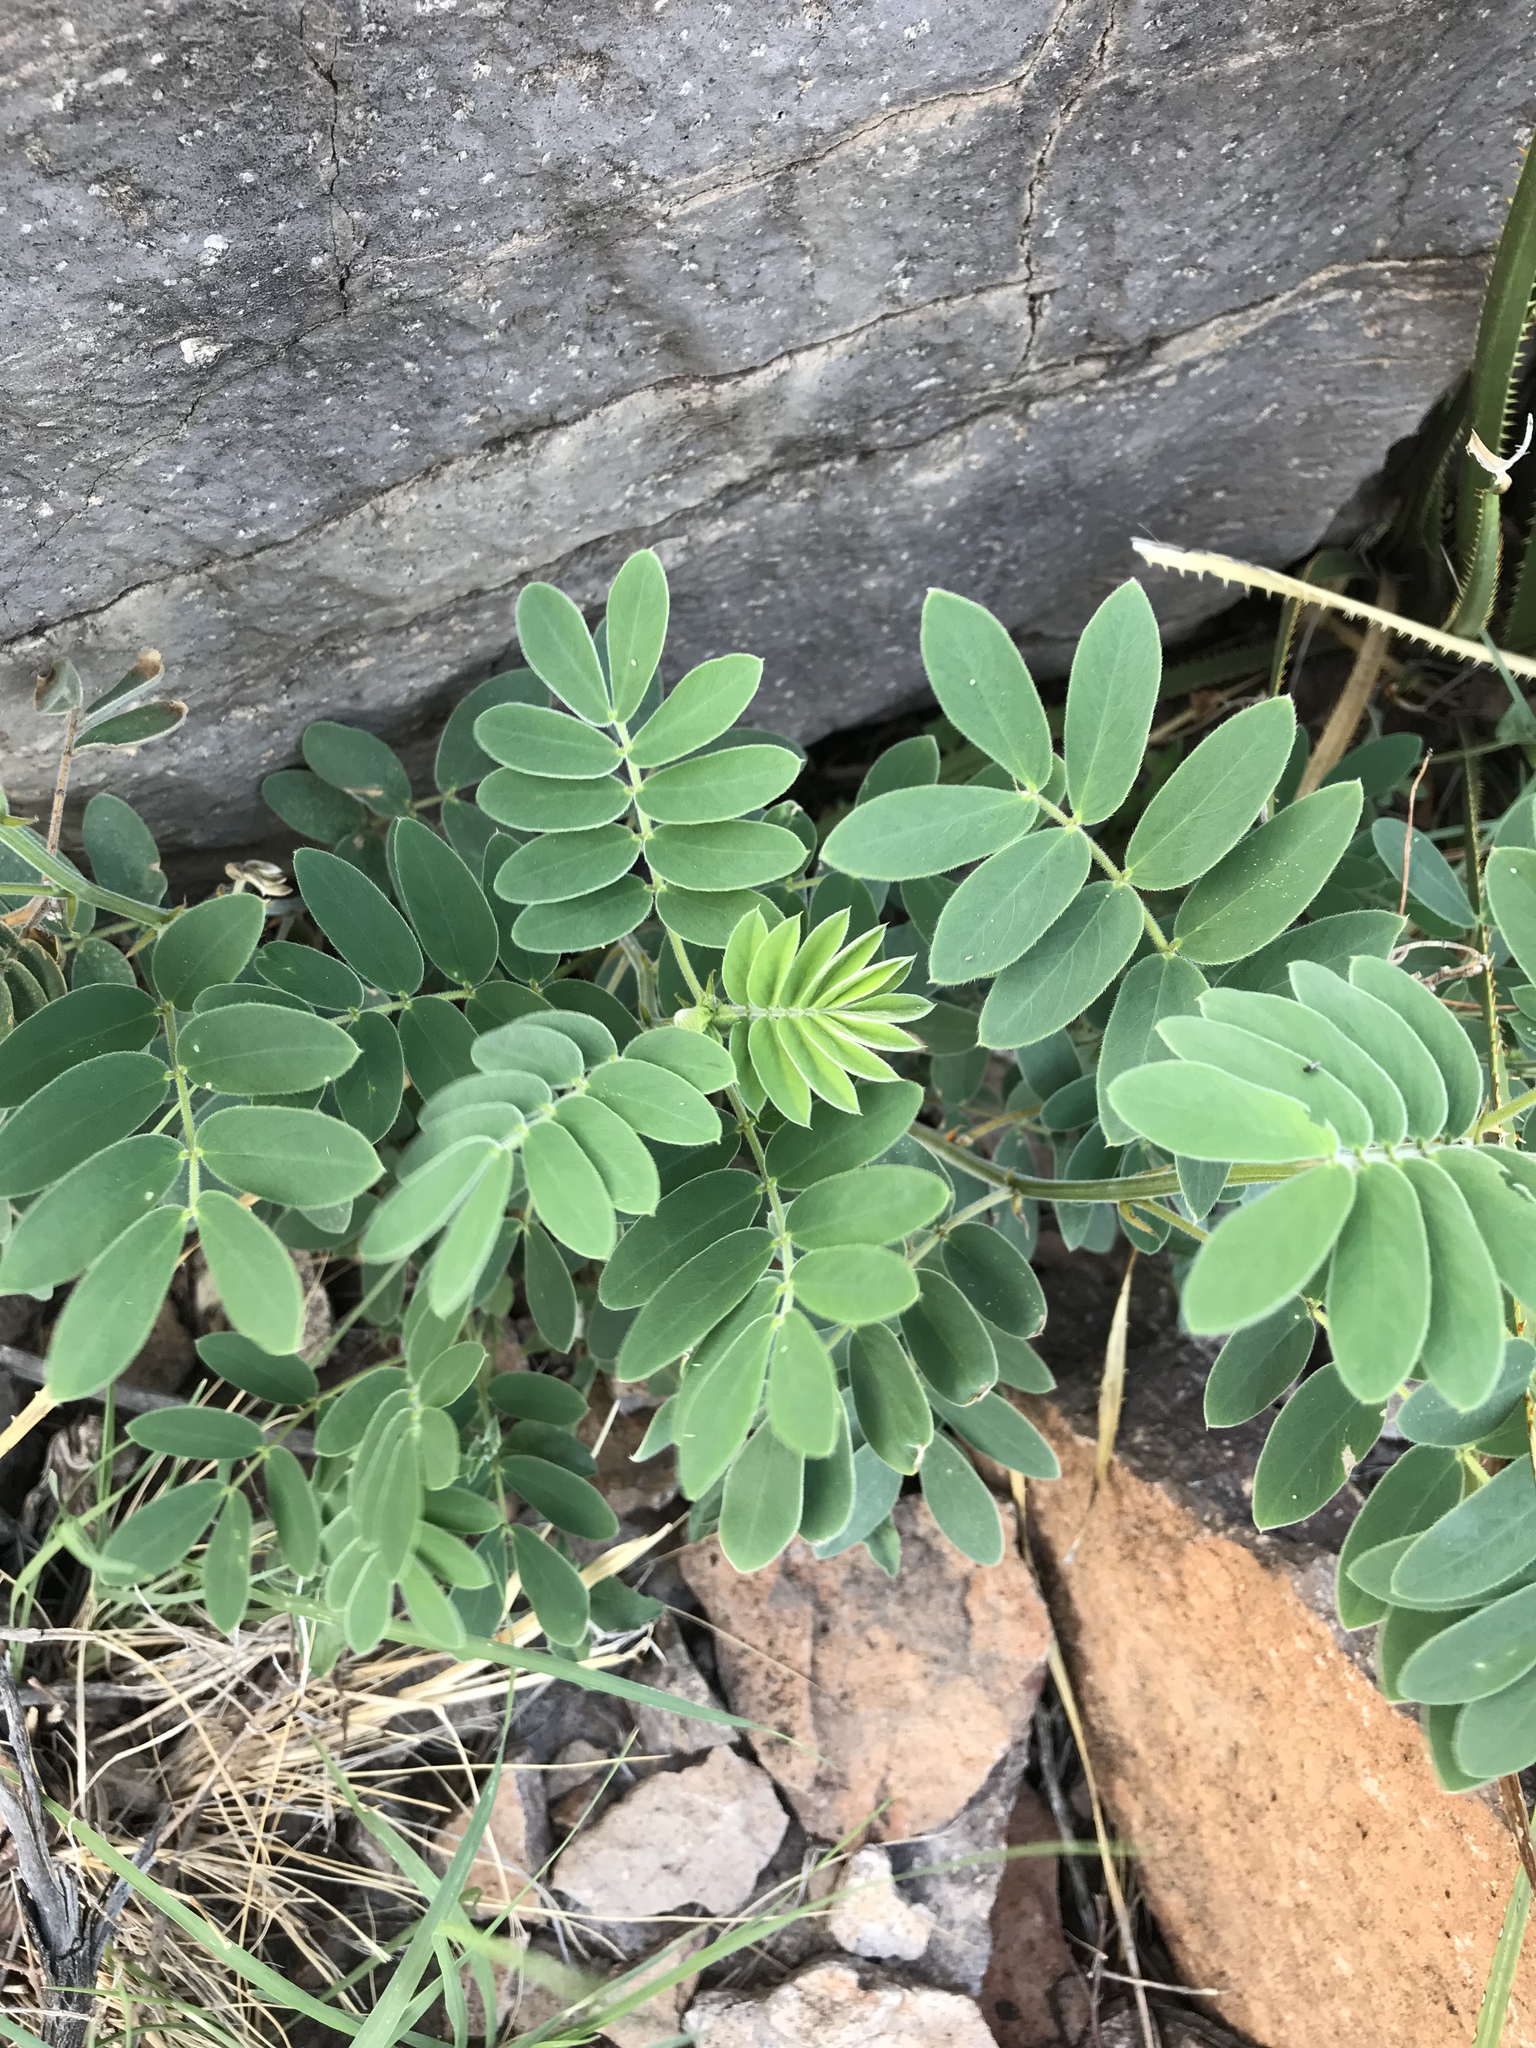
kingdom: Plantae
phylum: Tracheophyta
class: Magnoliopsida
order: Fabales
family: Fabaceae
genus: Senna
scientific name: Senna lindheimeriana
